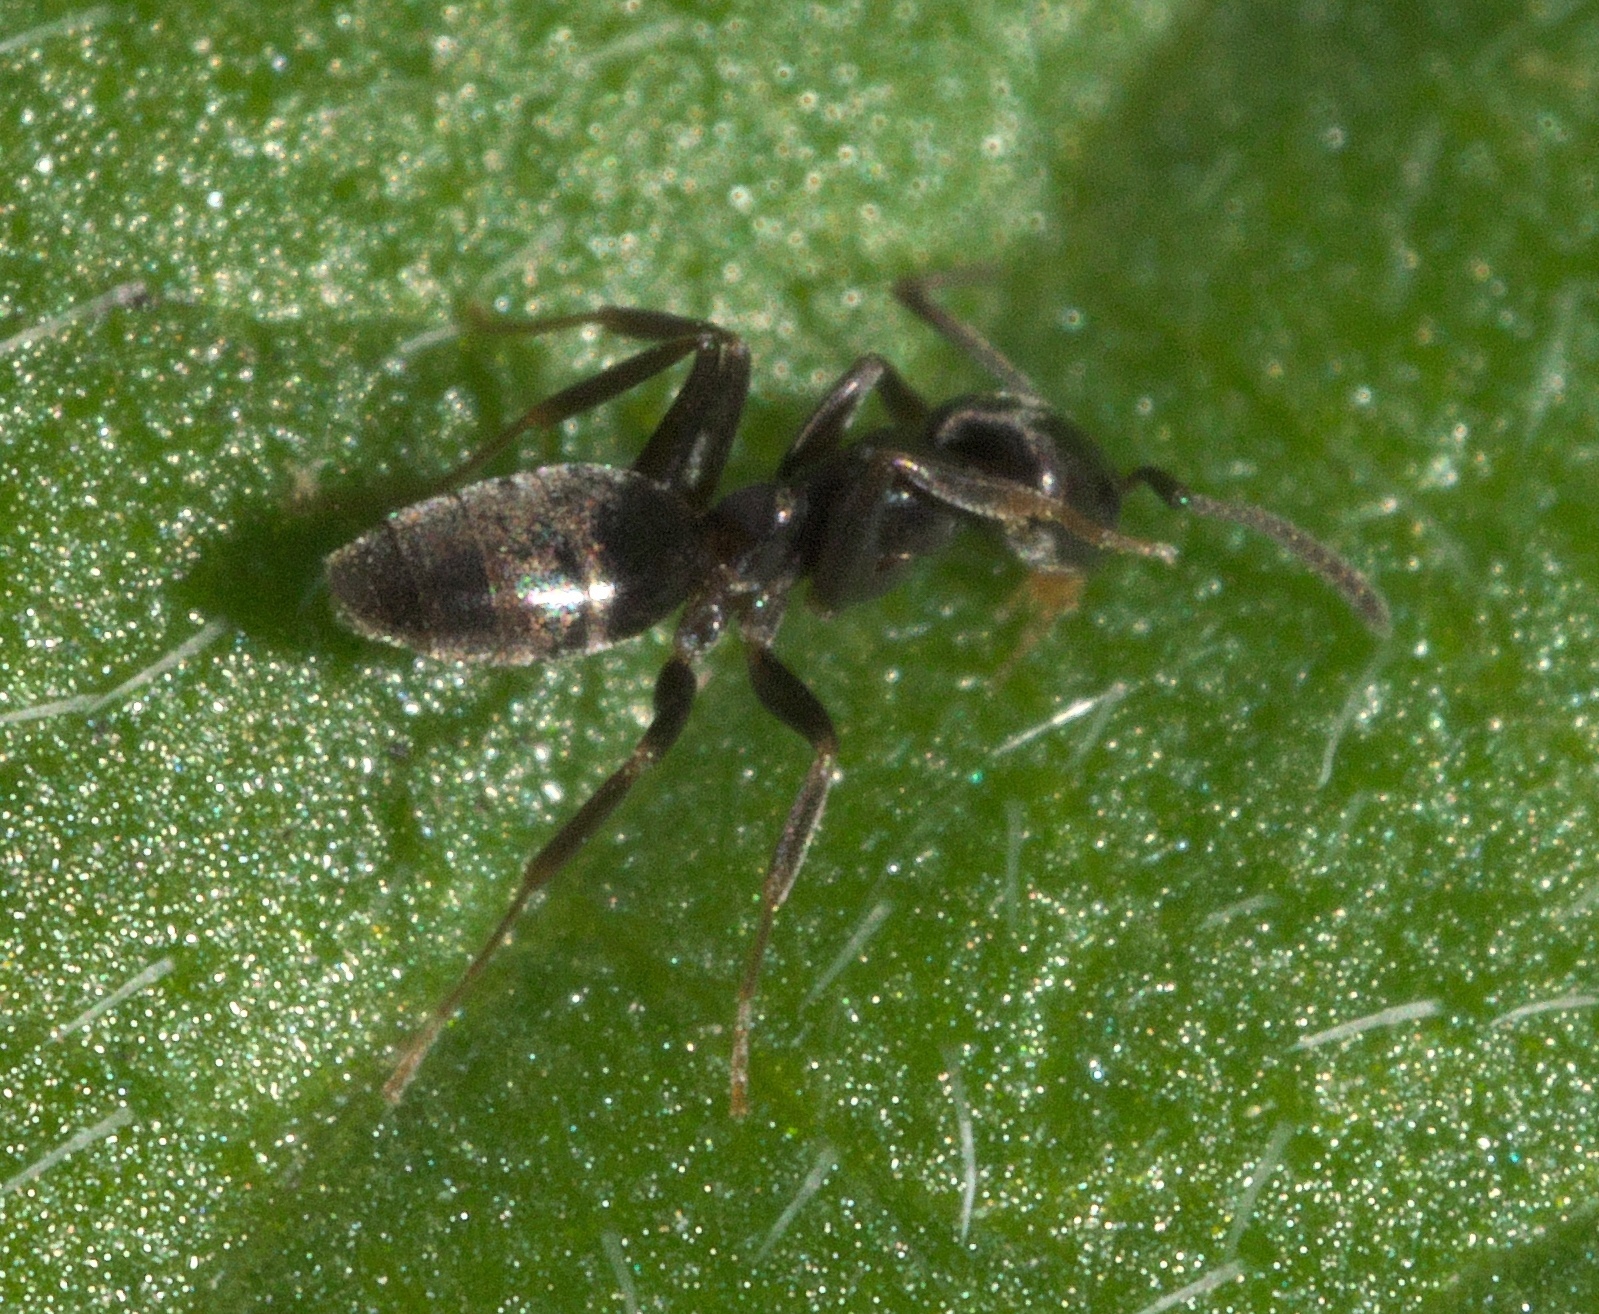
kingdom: Animalia
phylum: Arthropoda
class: Insecta
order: Hymenoptera
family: Formicidae
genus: Tapinoma
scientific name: Tapinoma sessile
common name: Odorous house ant
